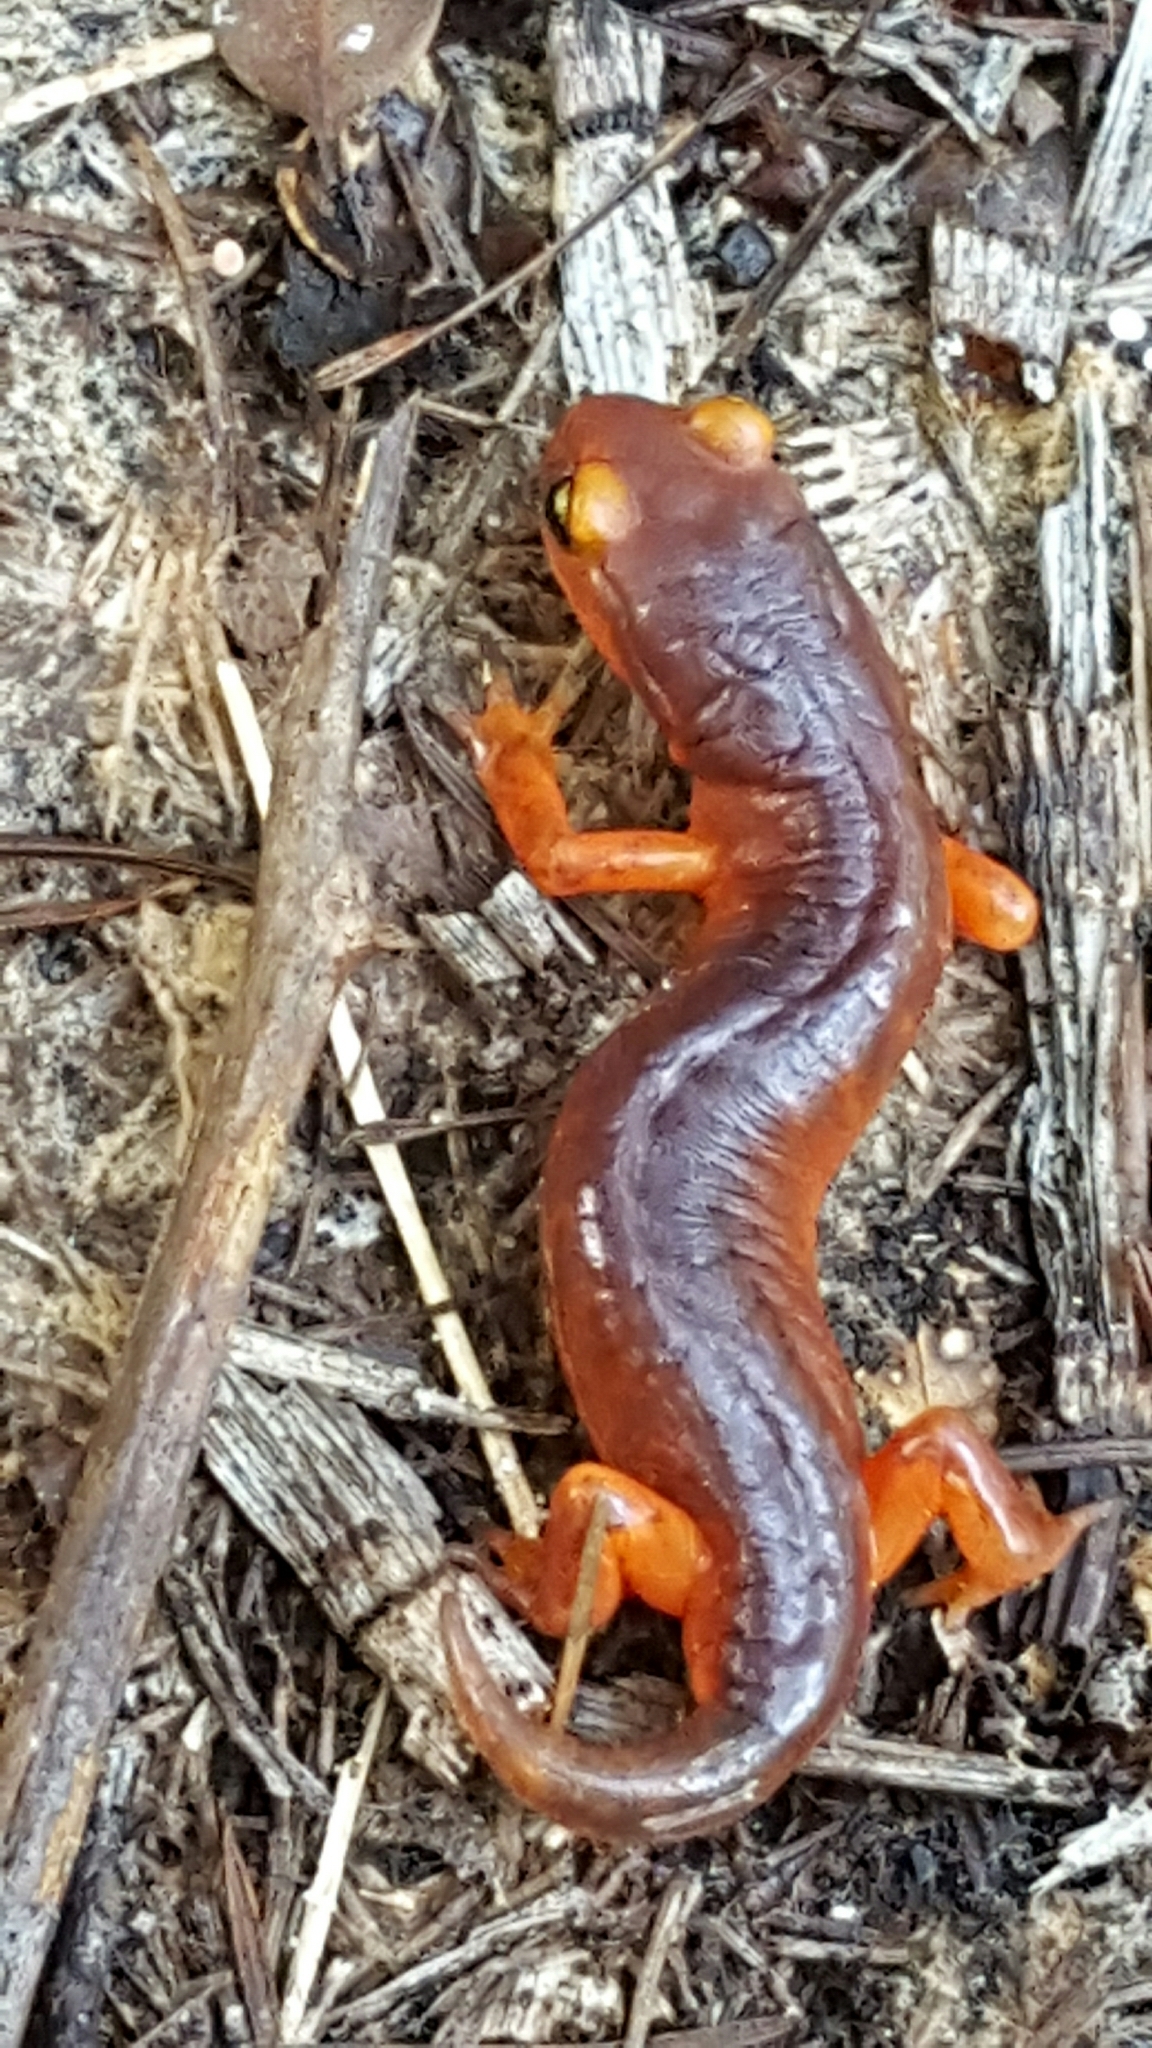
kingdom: Animalia
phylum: Chordata
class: Amphibia
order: Caudata
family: Plethodontidae
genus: Ensatina
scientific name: Ensatina eschscholtzii
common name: Ensatina
